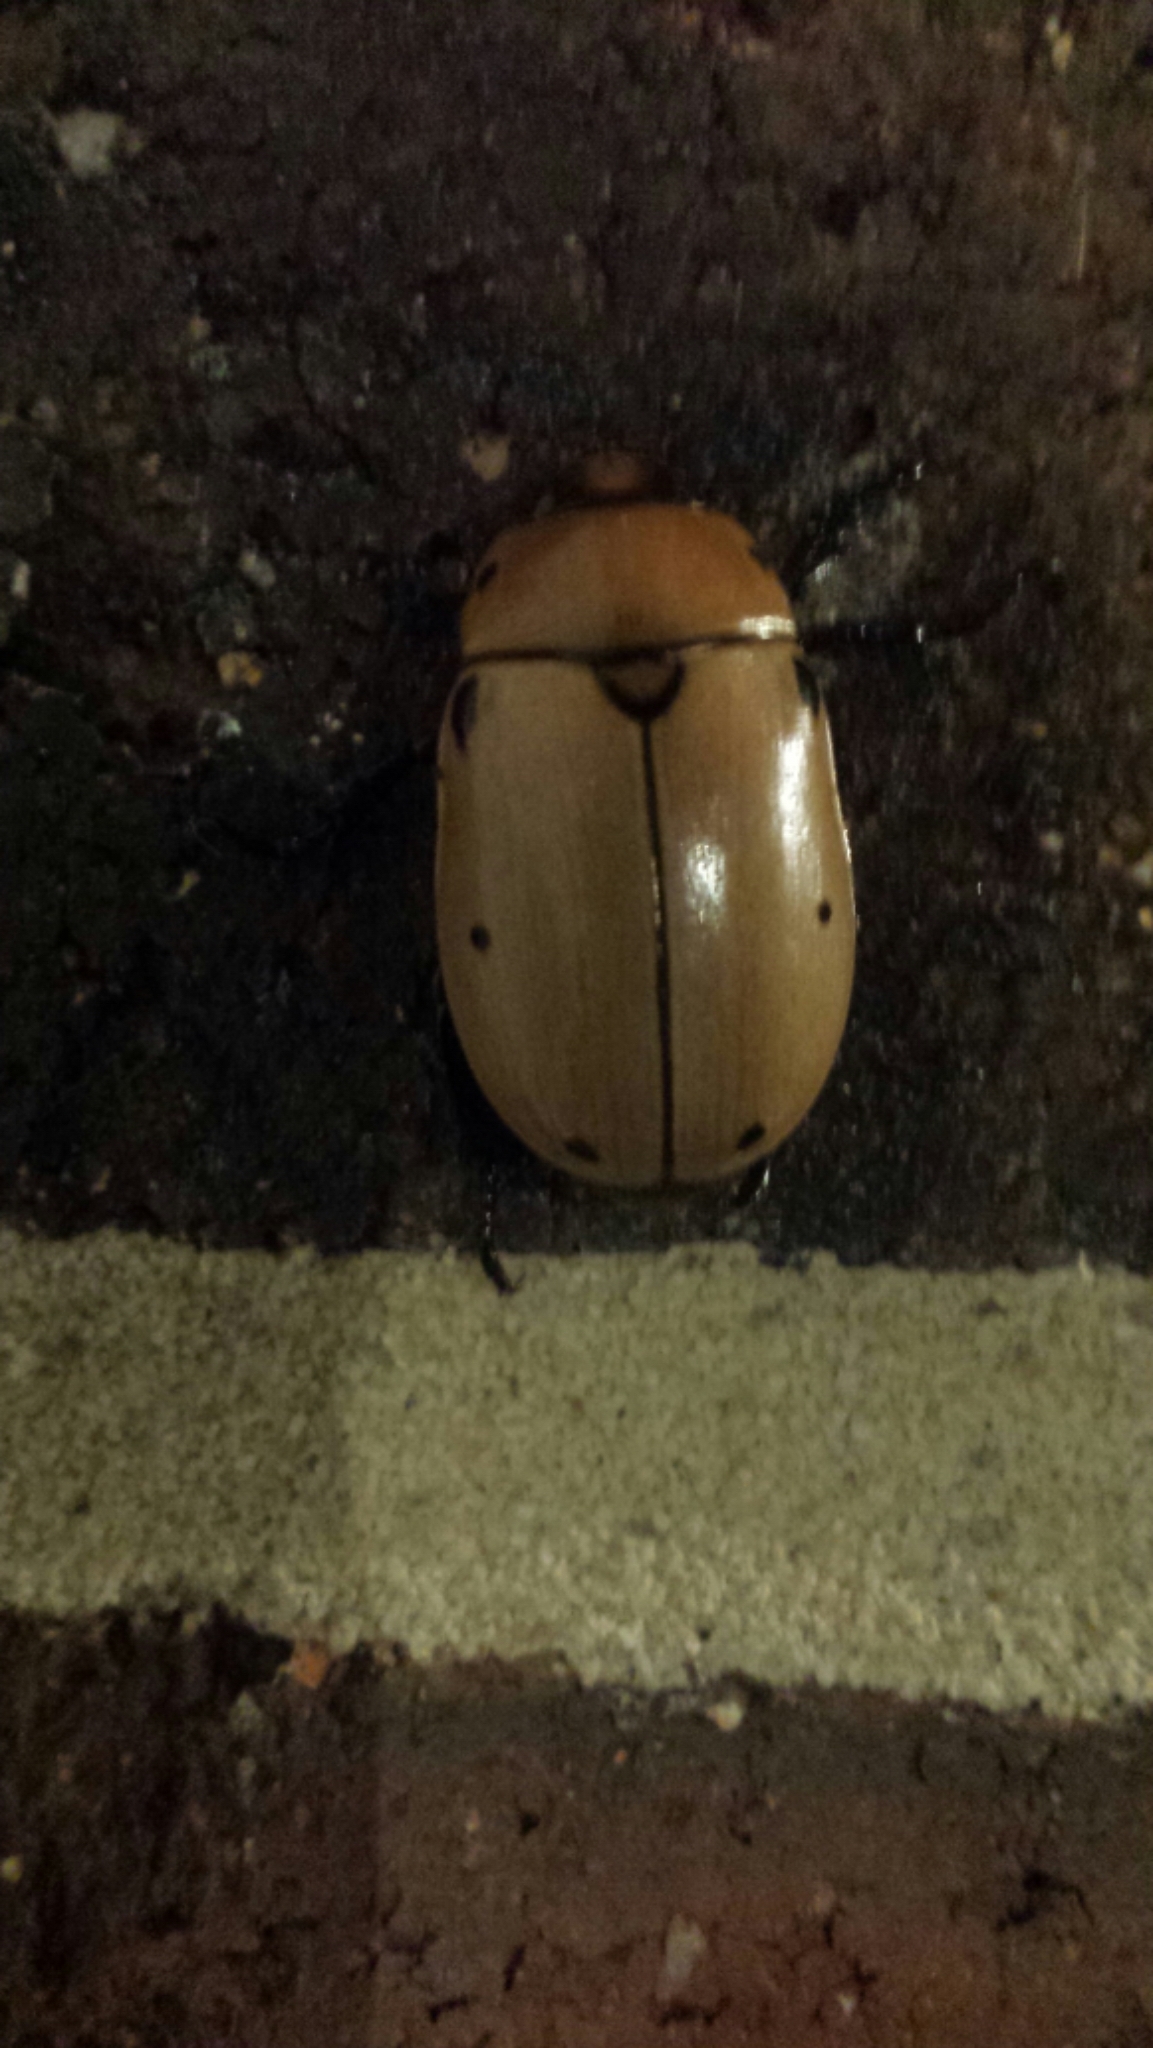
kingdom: Animalia
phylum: Arthropoda
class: Insecta
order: Coleoptera
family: Scarabaeidae
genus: Pelidnota
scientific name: Pelidnota punctata
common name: Grapevine beetle
